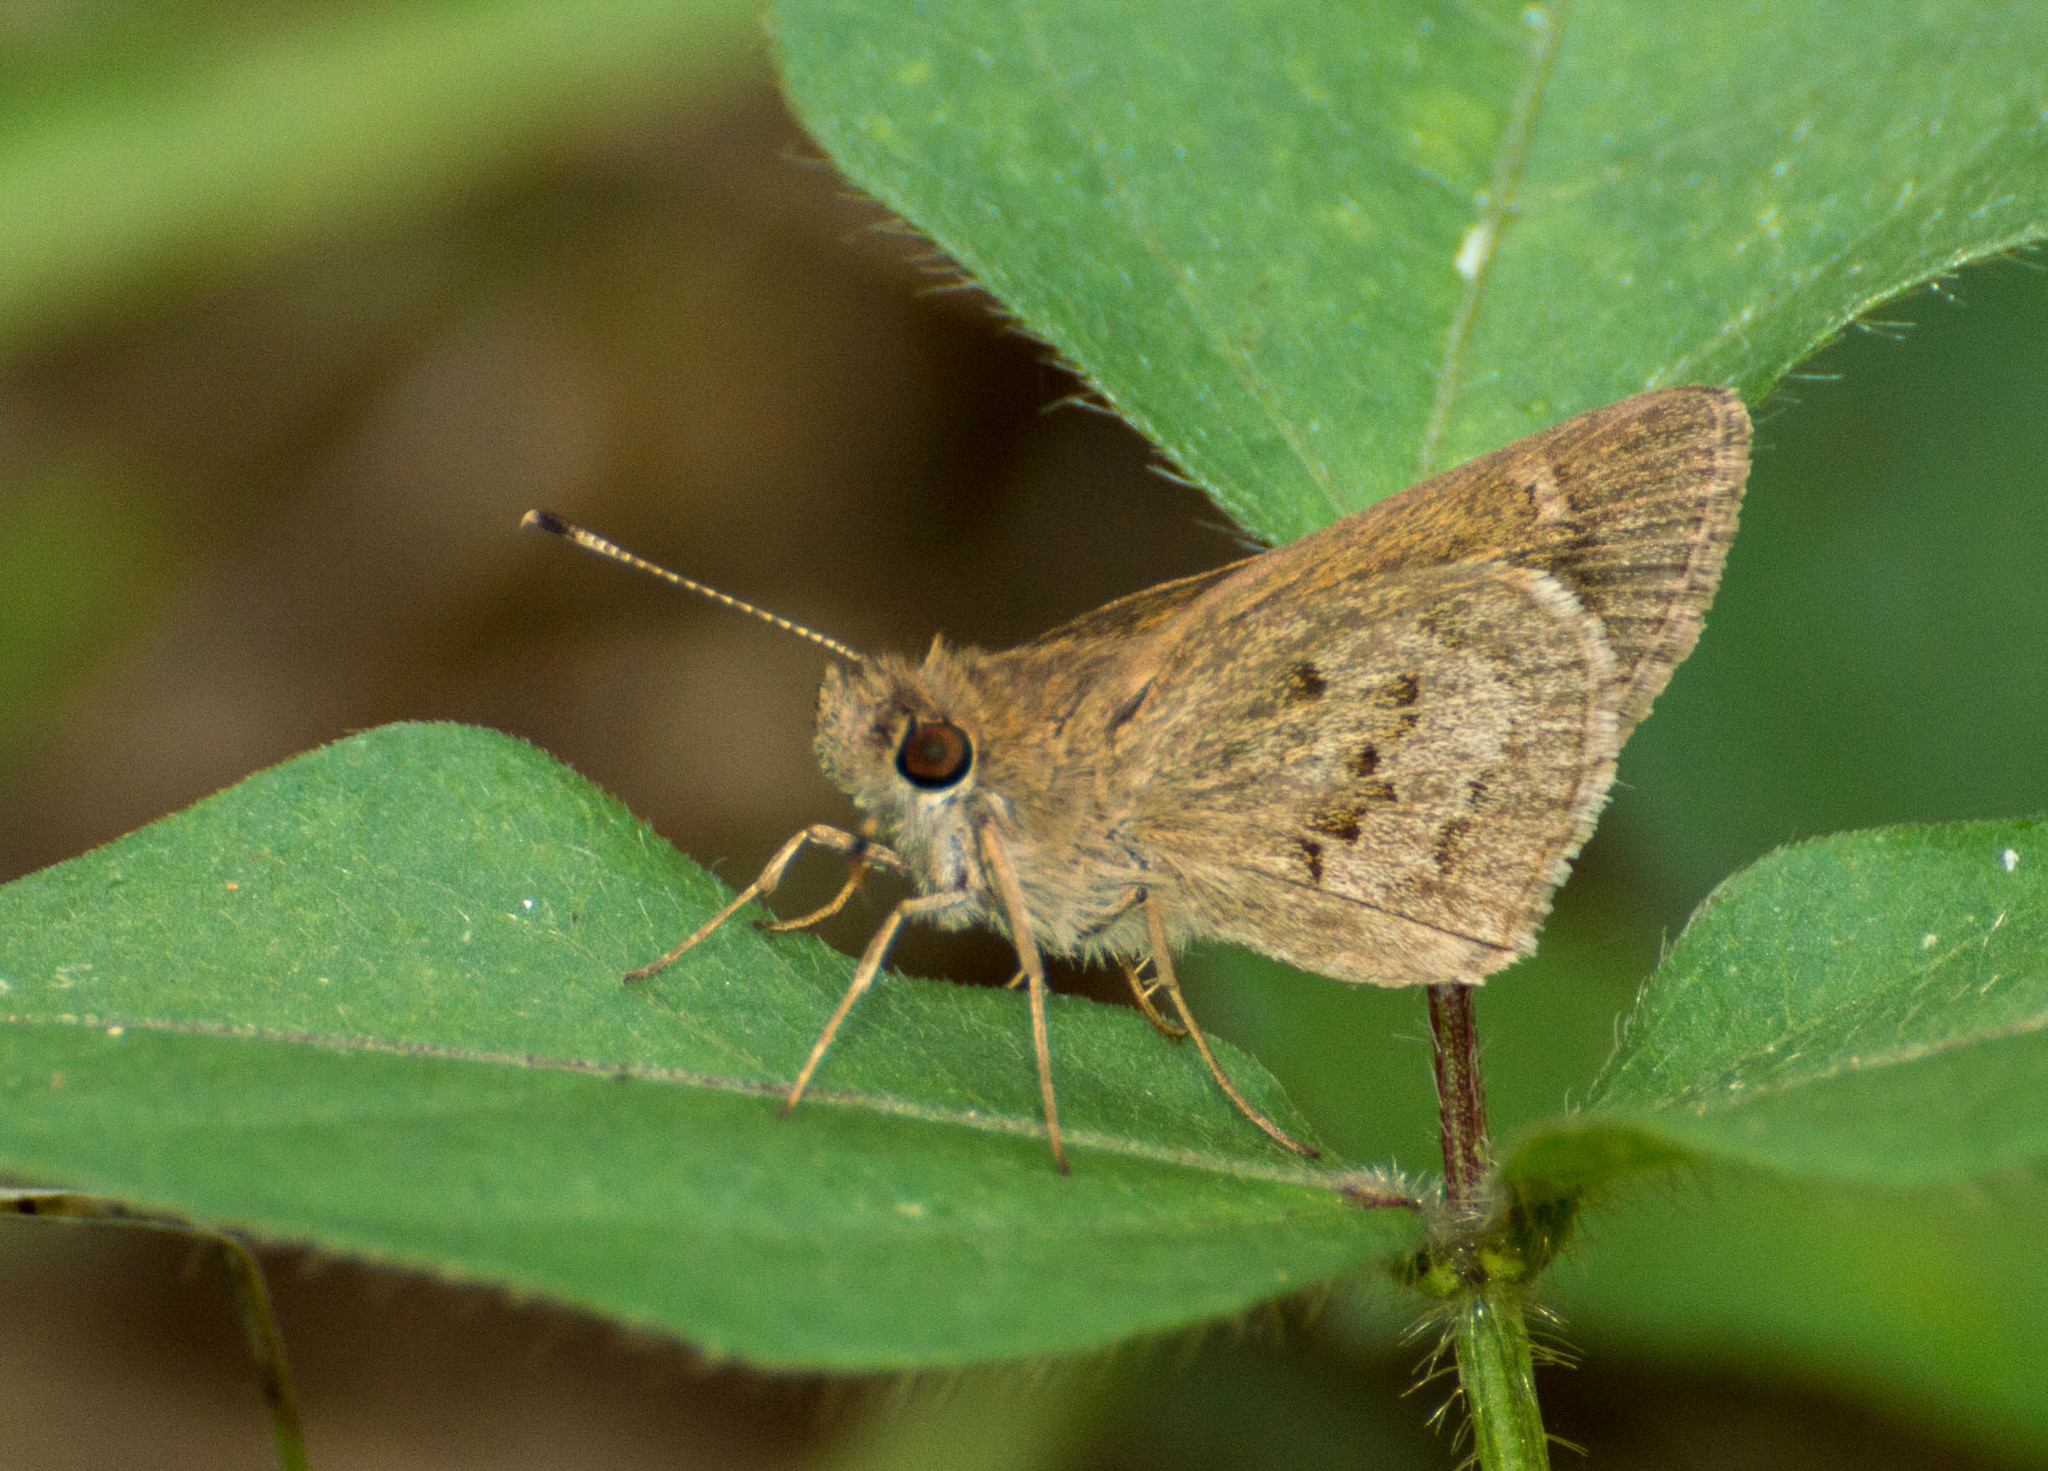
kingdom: Animalia
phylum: Arthropoda
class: Insecta
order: Lepidoptera
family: Hesperiidae
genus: Cymaenes
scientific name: Cymaenes gisca
